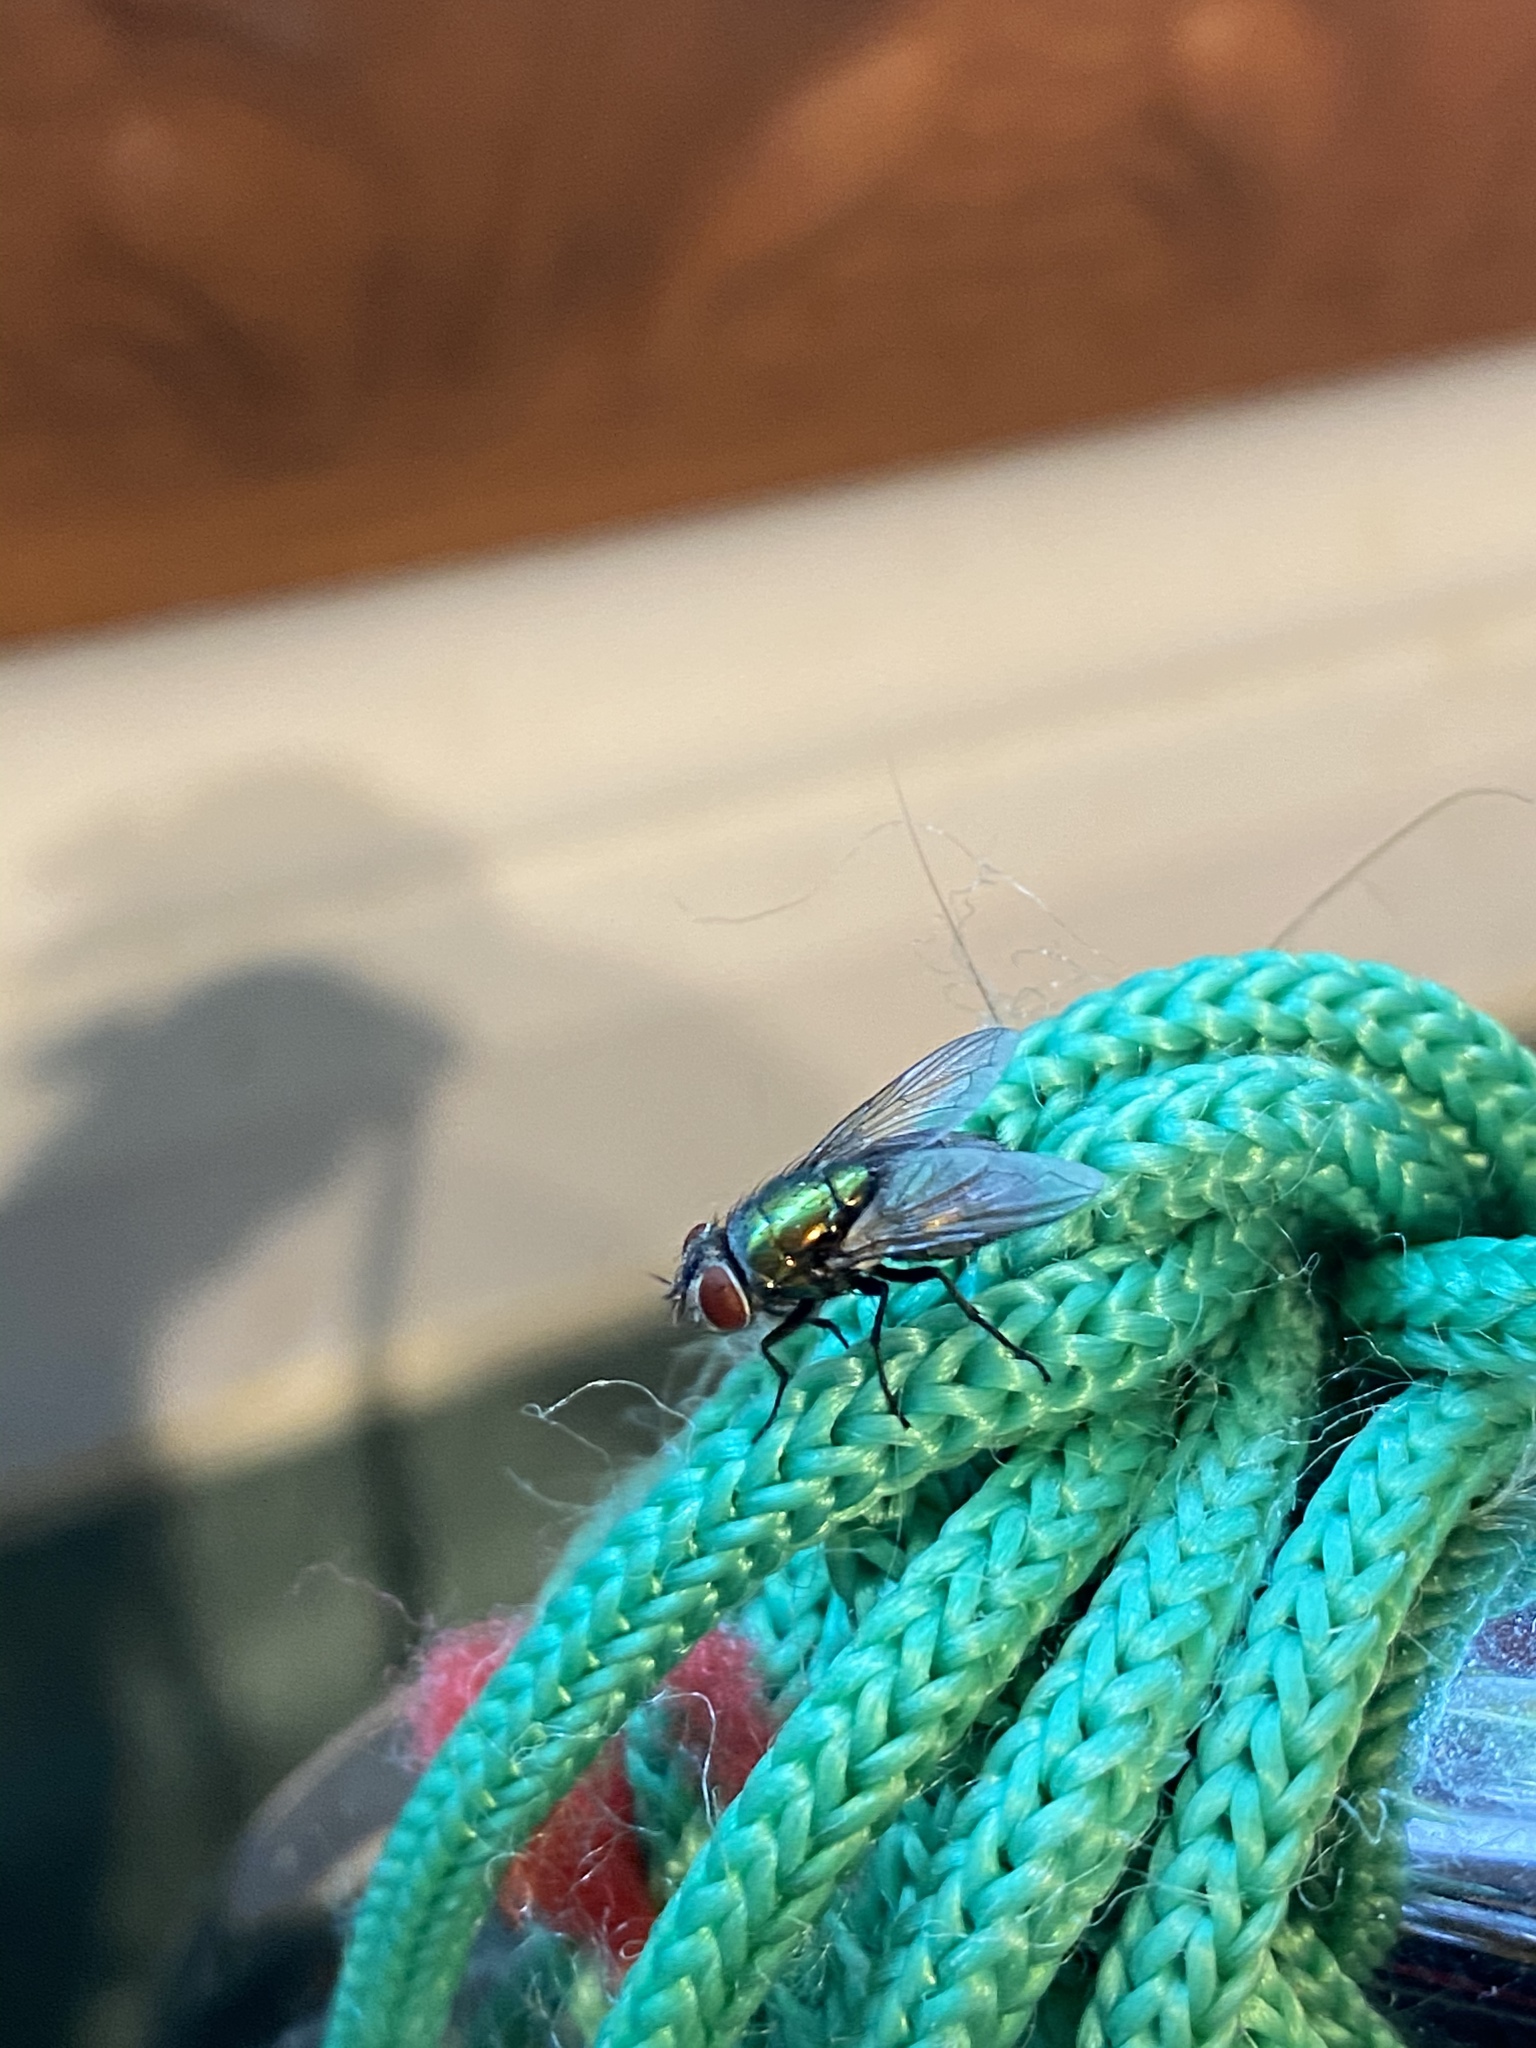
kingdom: Animalia
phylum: Arthropoda
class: Insecta
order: Diptera
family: Calliphoridae
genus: Lucilia
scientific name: Lucilia sericata
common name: Blow fly
